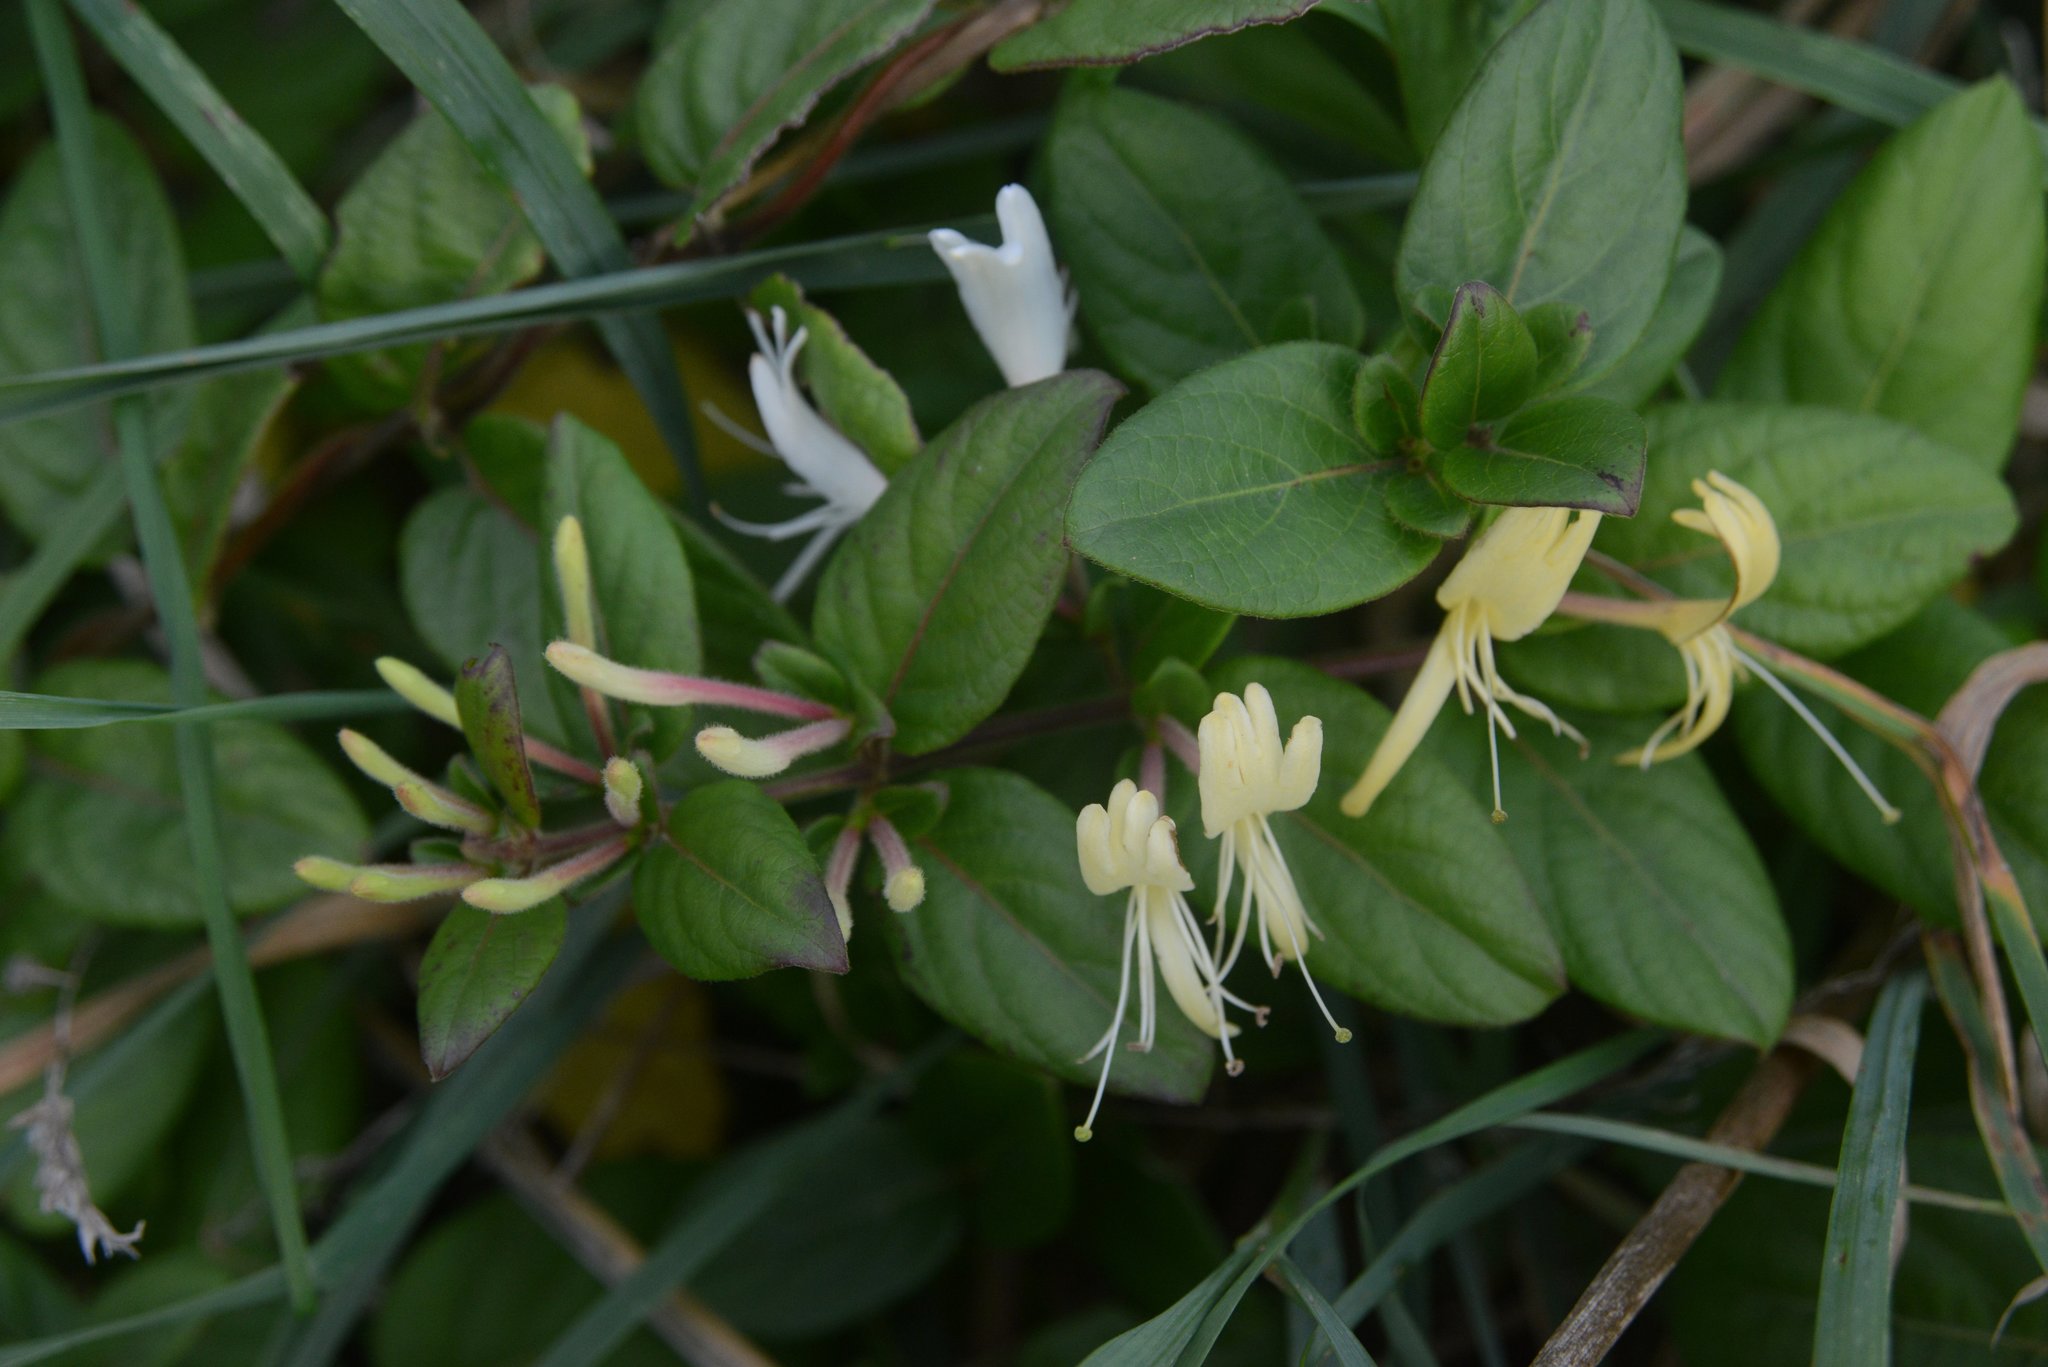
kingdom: Plantae
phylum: Tracheophyta
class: Magnoliopsida
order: Dipsacales
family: Caprifoliaceae
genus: Lonicera
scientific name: Lonicera japonica
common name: Japanese honeysuckle
